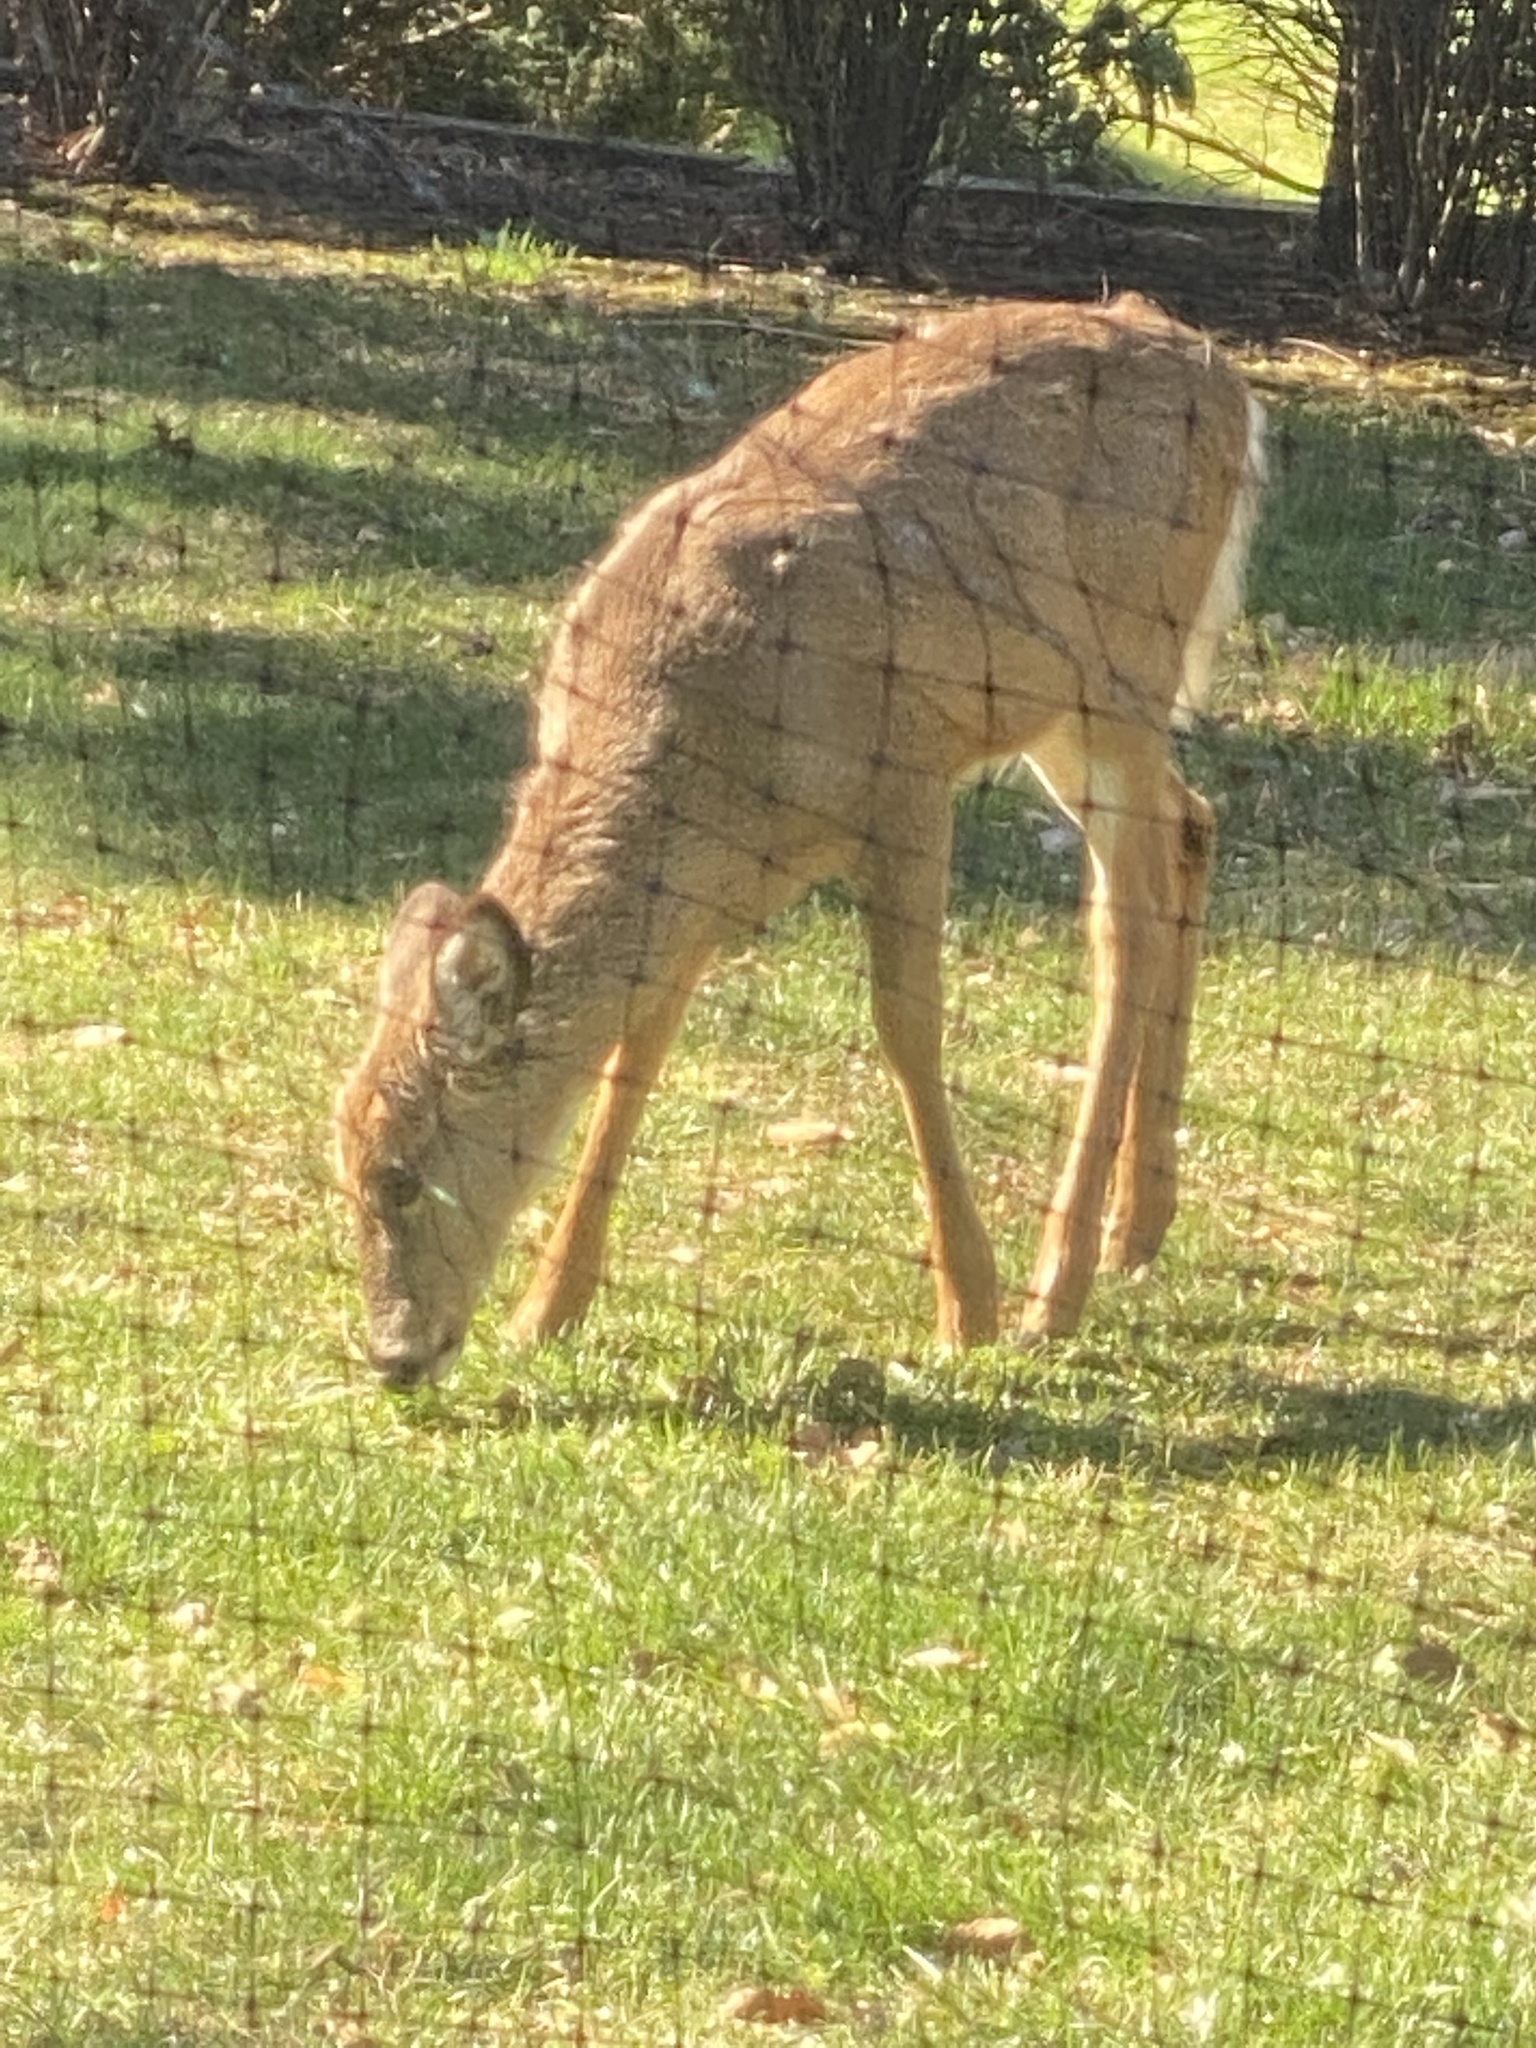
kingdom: Animalia
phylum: Chordata
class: Mammalia
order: Artiodactyla
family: Cervidae
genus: Odocoileus
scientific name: Odocoileus virginianus
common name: White-tailed deer
